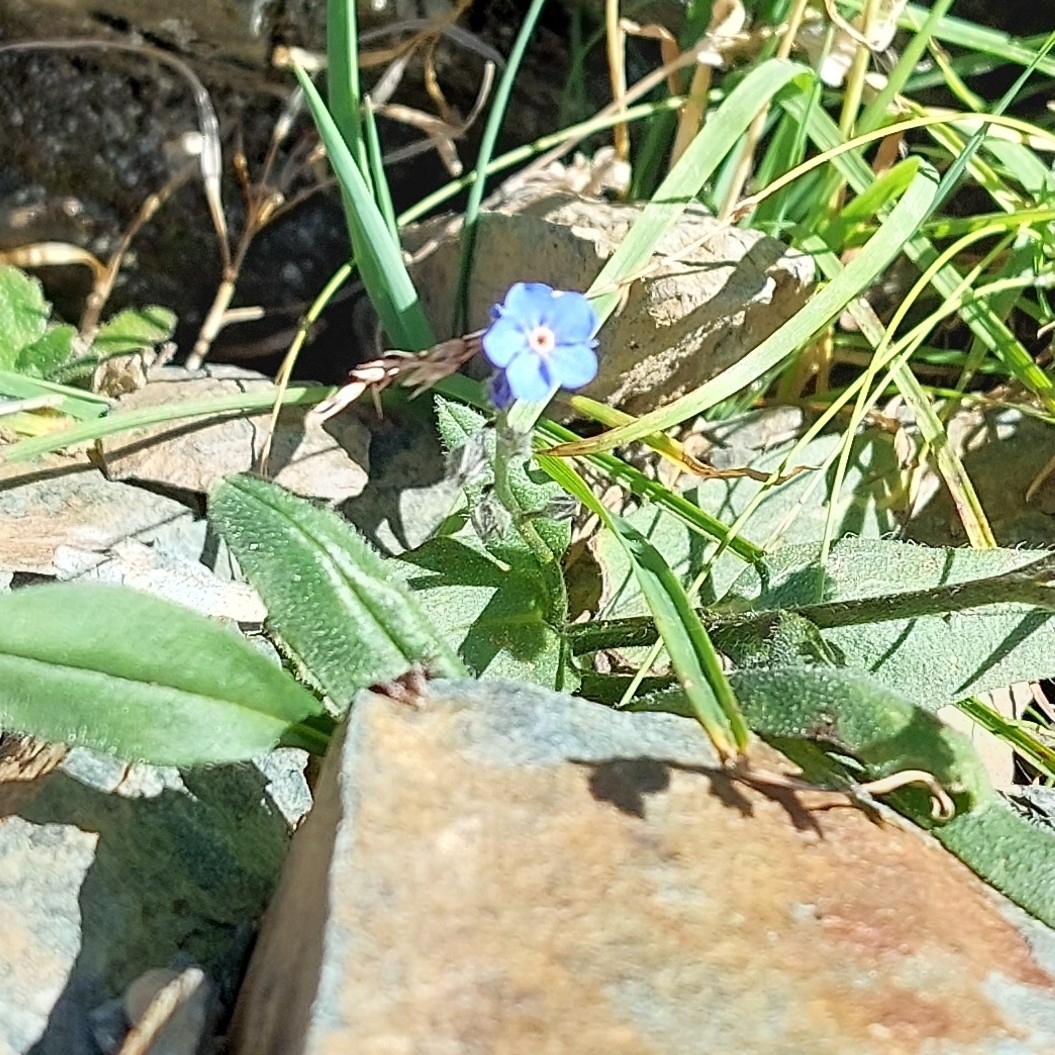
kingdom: Plantae
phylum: Tracheophyta
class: Magnoliopsida
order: Boraginales
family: Boraginaceae
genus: Myosotis
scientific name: Myosotis alpestris
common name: Alpine forget-me-not
